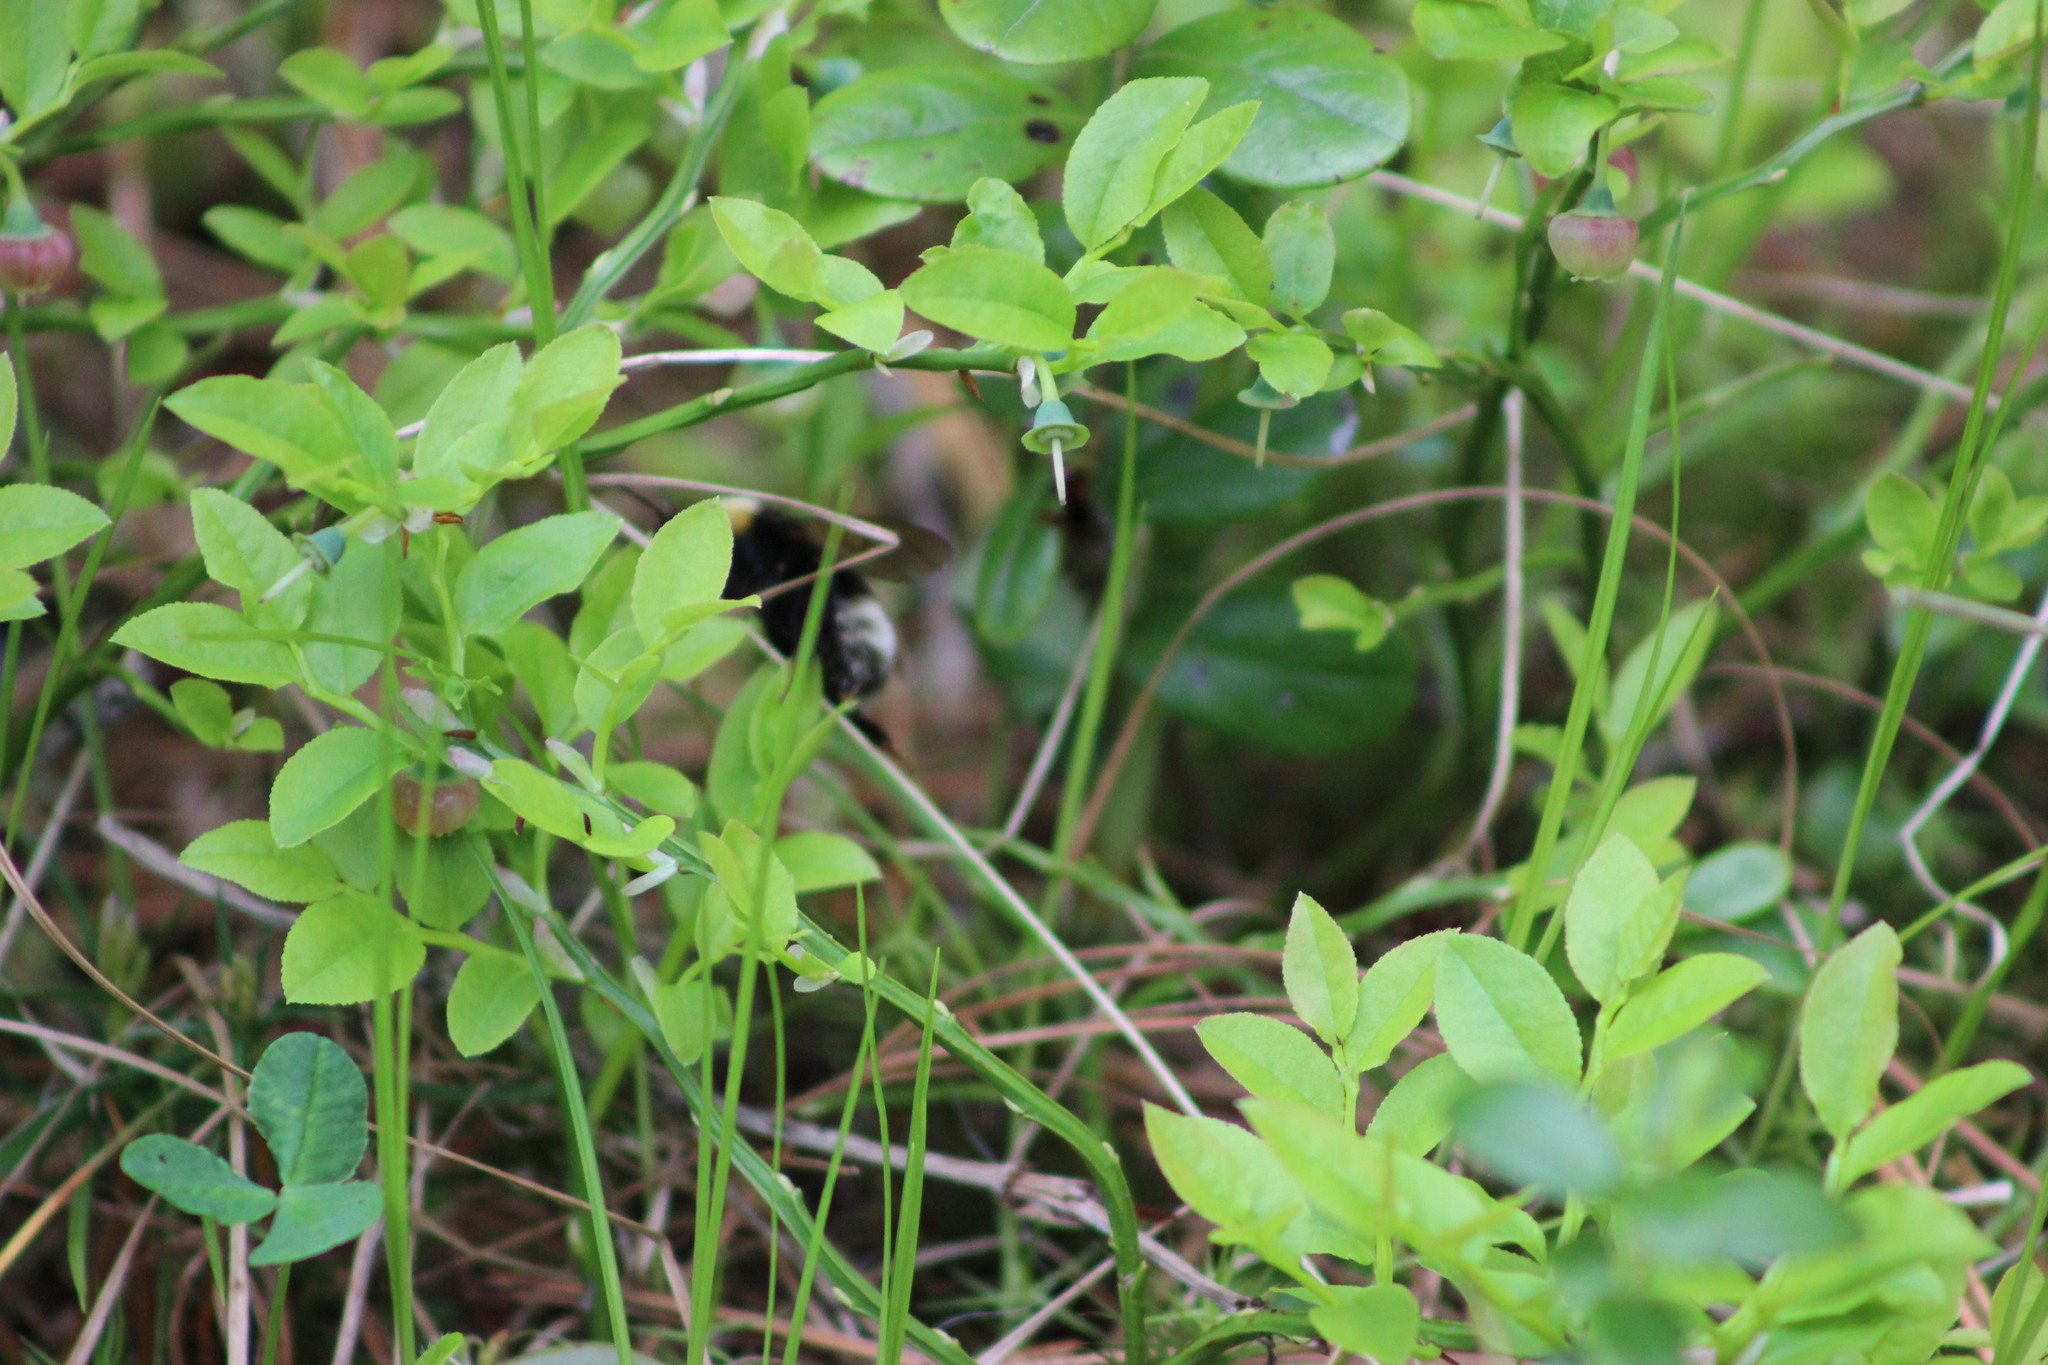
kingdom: Animalia
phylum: Arthropoda
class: Insecta
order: Hymenoptera
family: Apidae
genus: Bombus
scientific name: Bombus bohemicus
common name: Gypsy cuckoo bee
